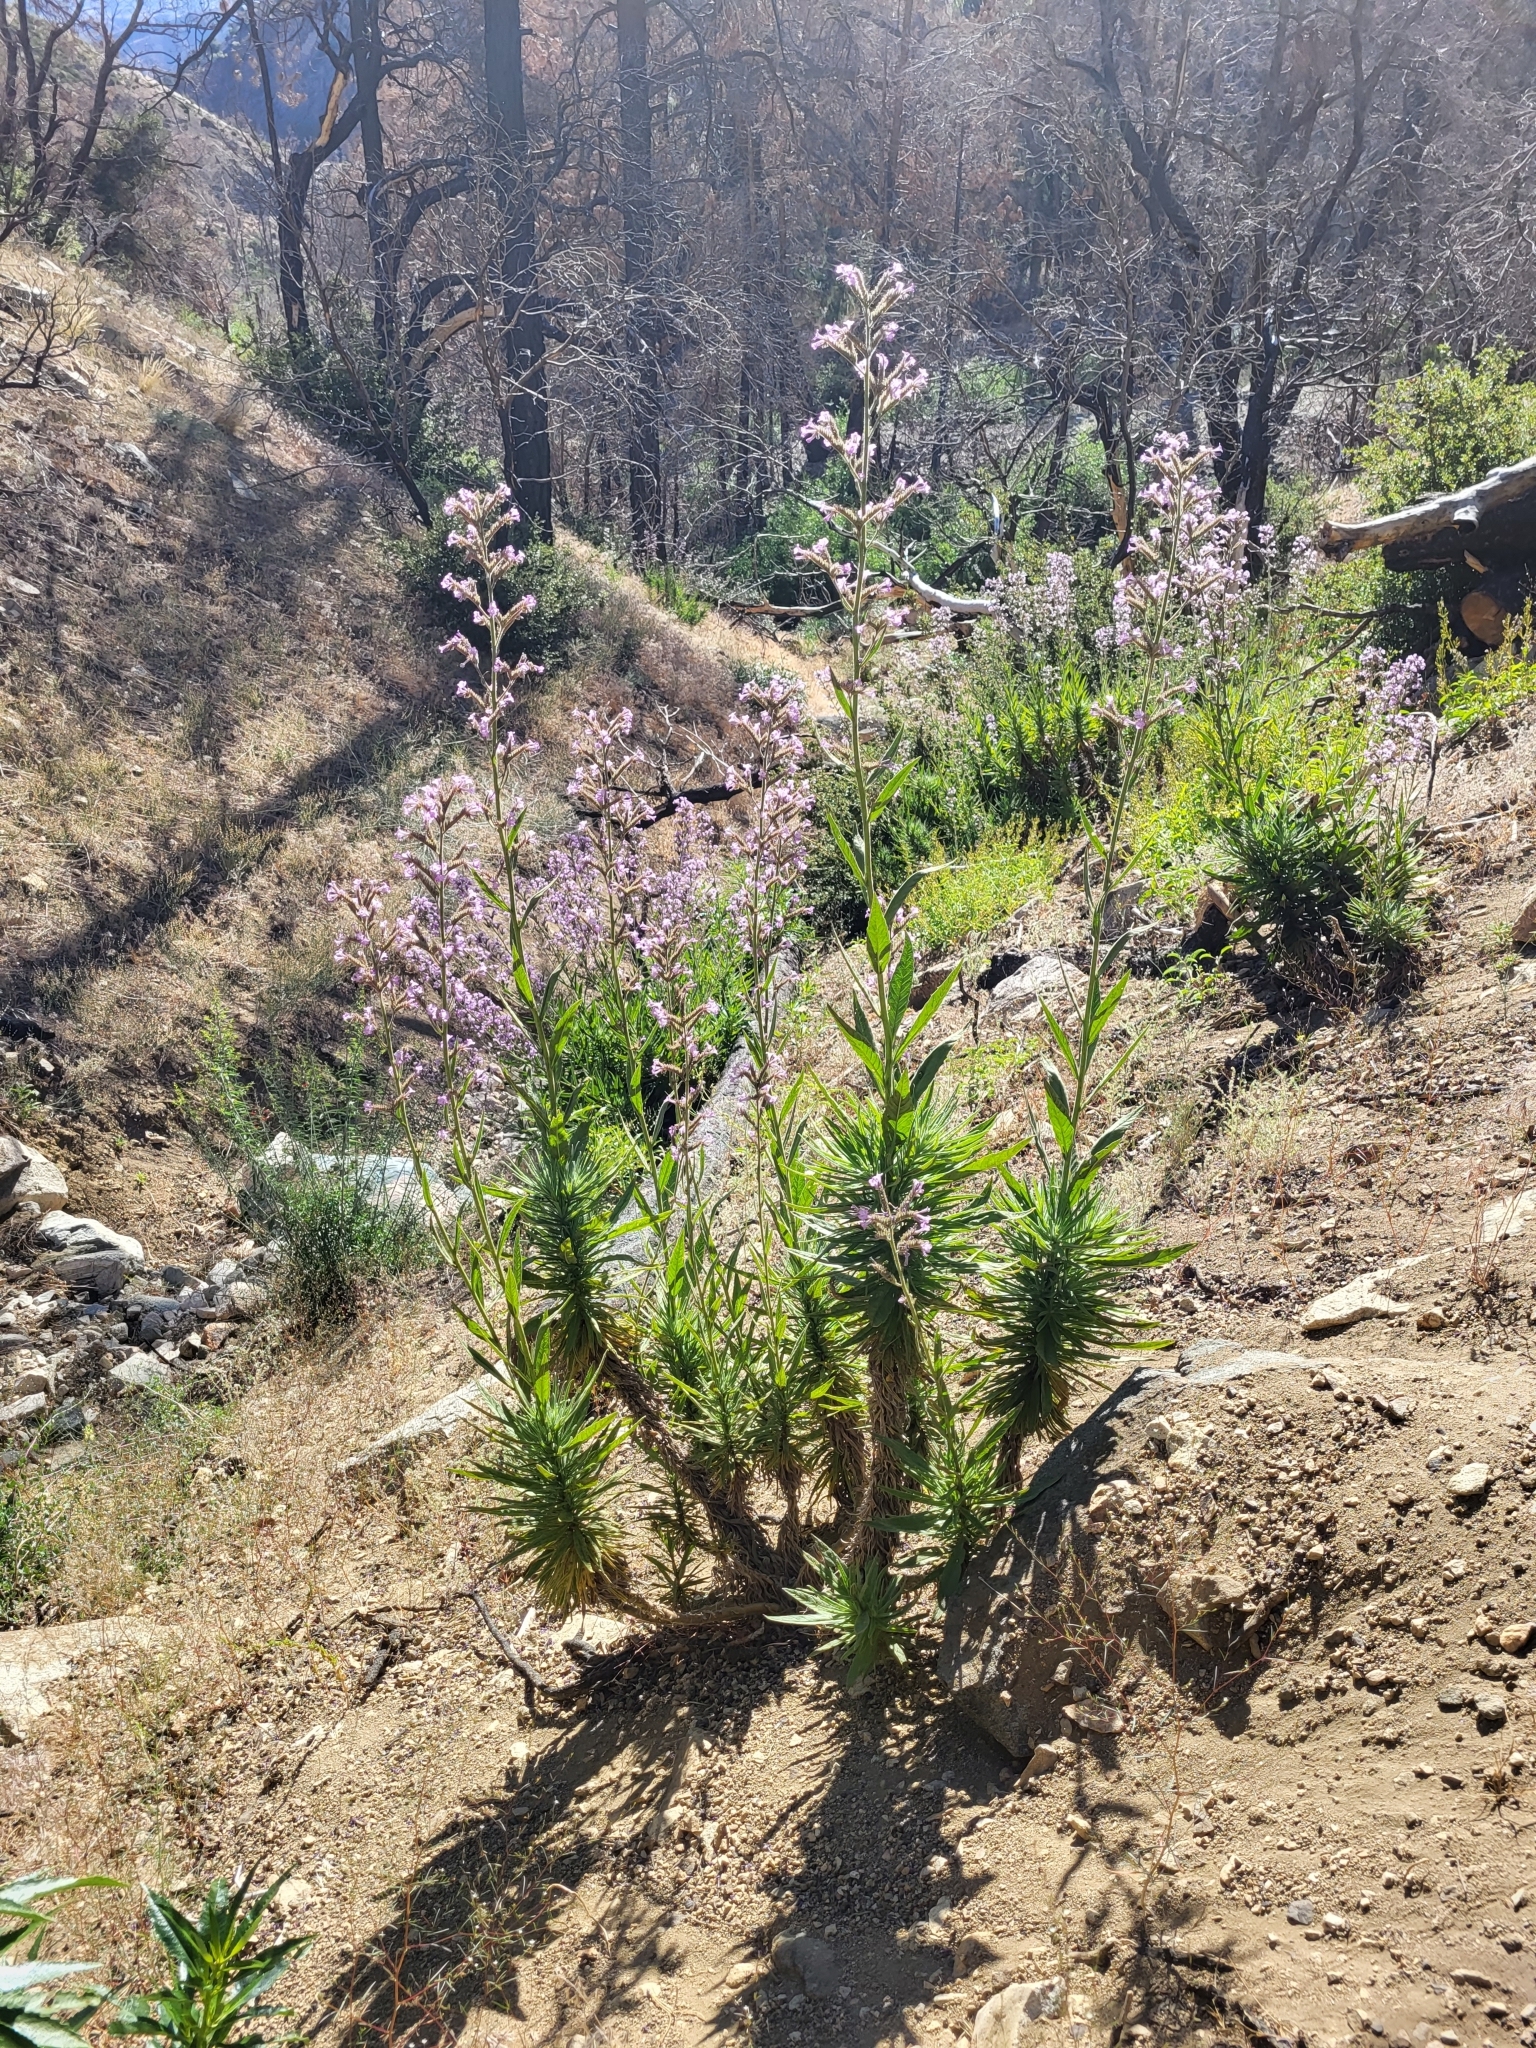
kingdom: Plantae
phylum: Tracheophyta
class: Magnoliopsida
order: Boraginales
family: Namaceae
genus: Turricula
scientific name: Turricula parryi
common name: Poodle-dog-bush
